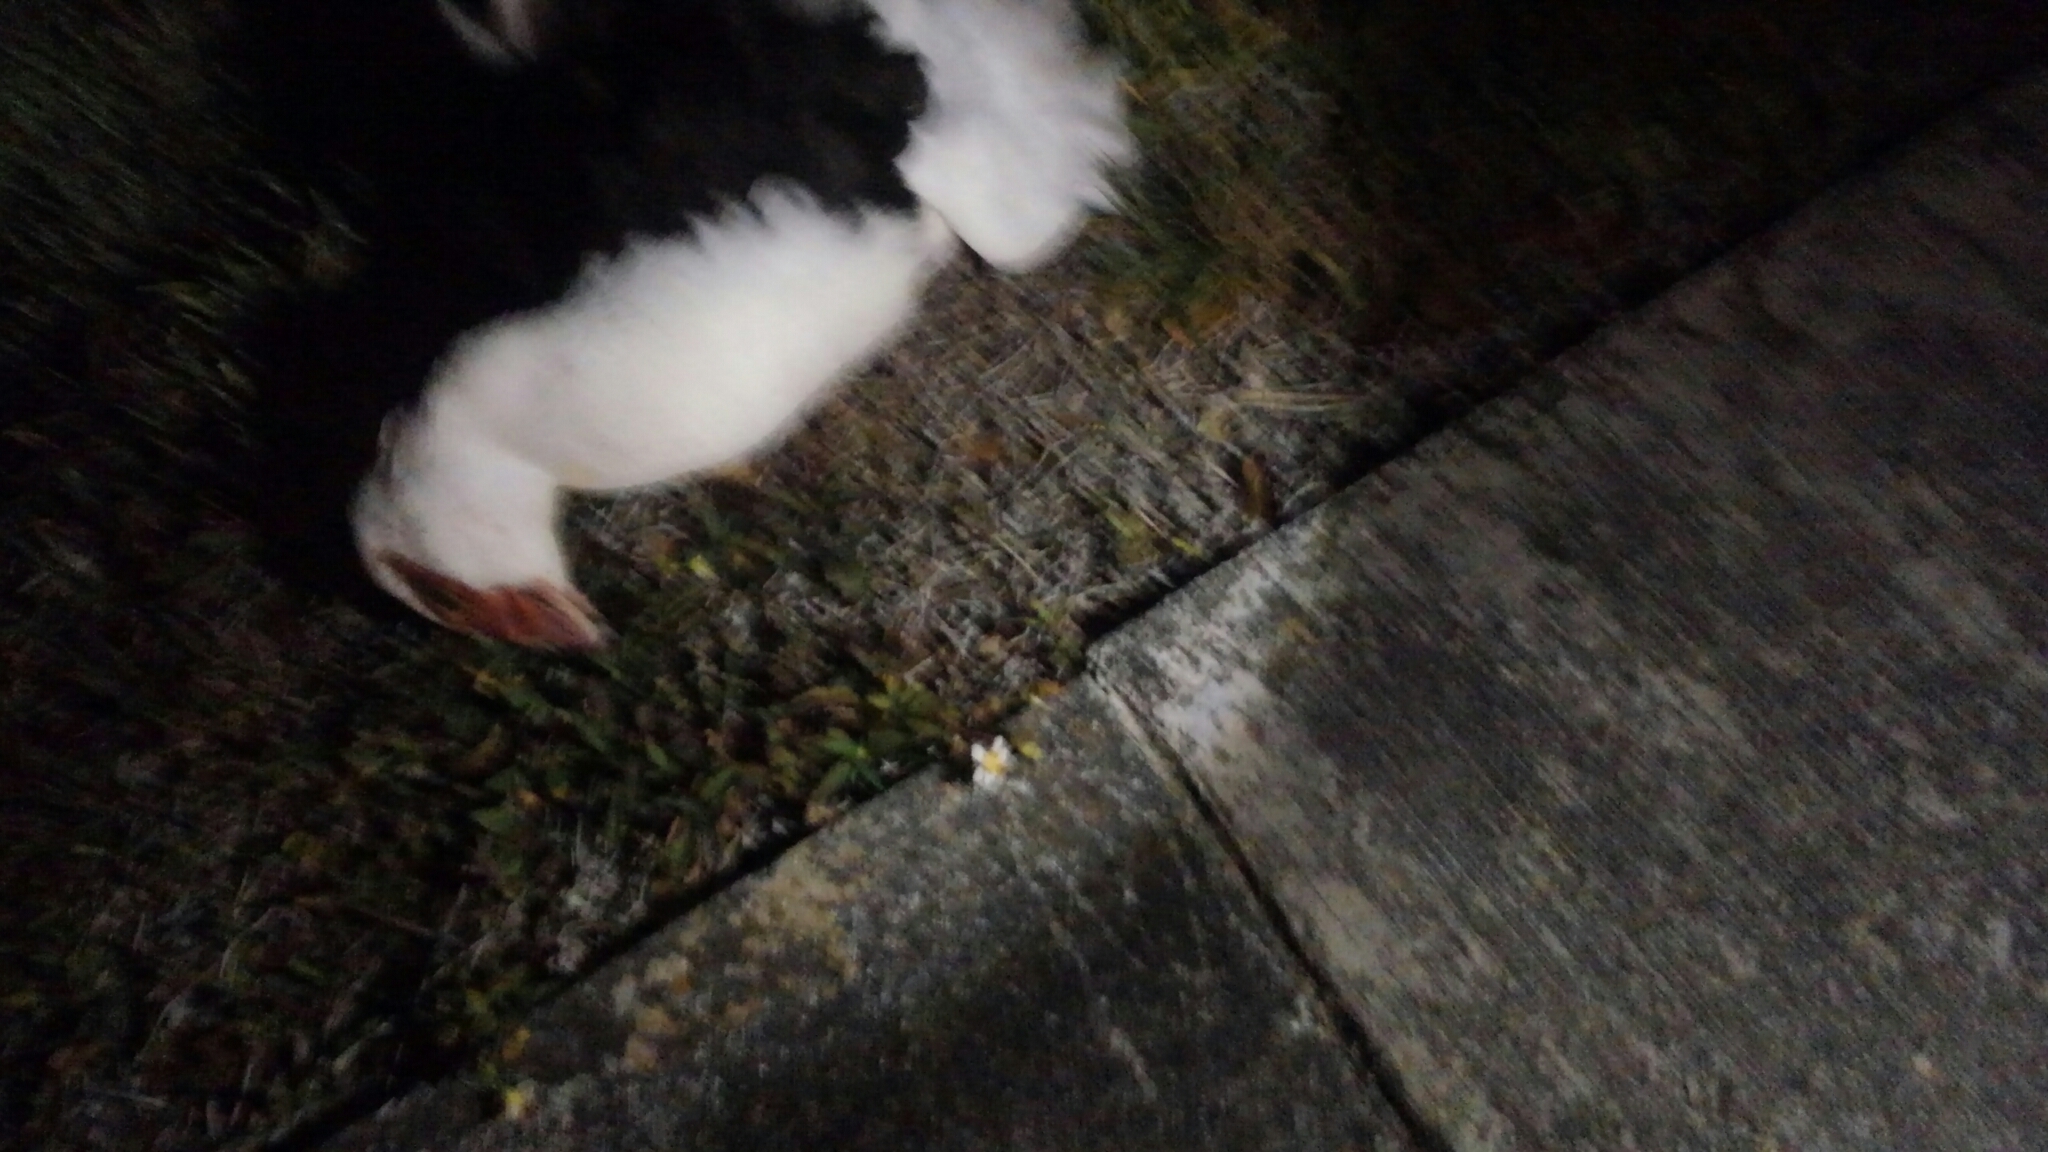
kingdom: Animalia
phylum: Chordata
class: Aves
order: Anseriformes
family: Anatidae
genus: Cairina
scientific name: Cairina moschata
